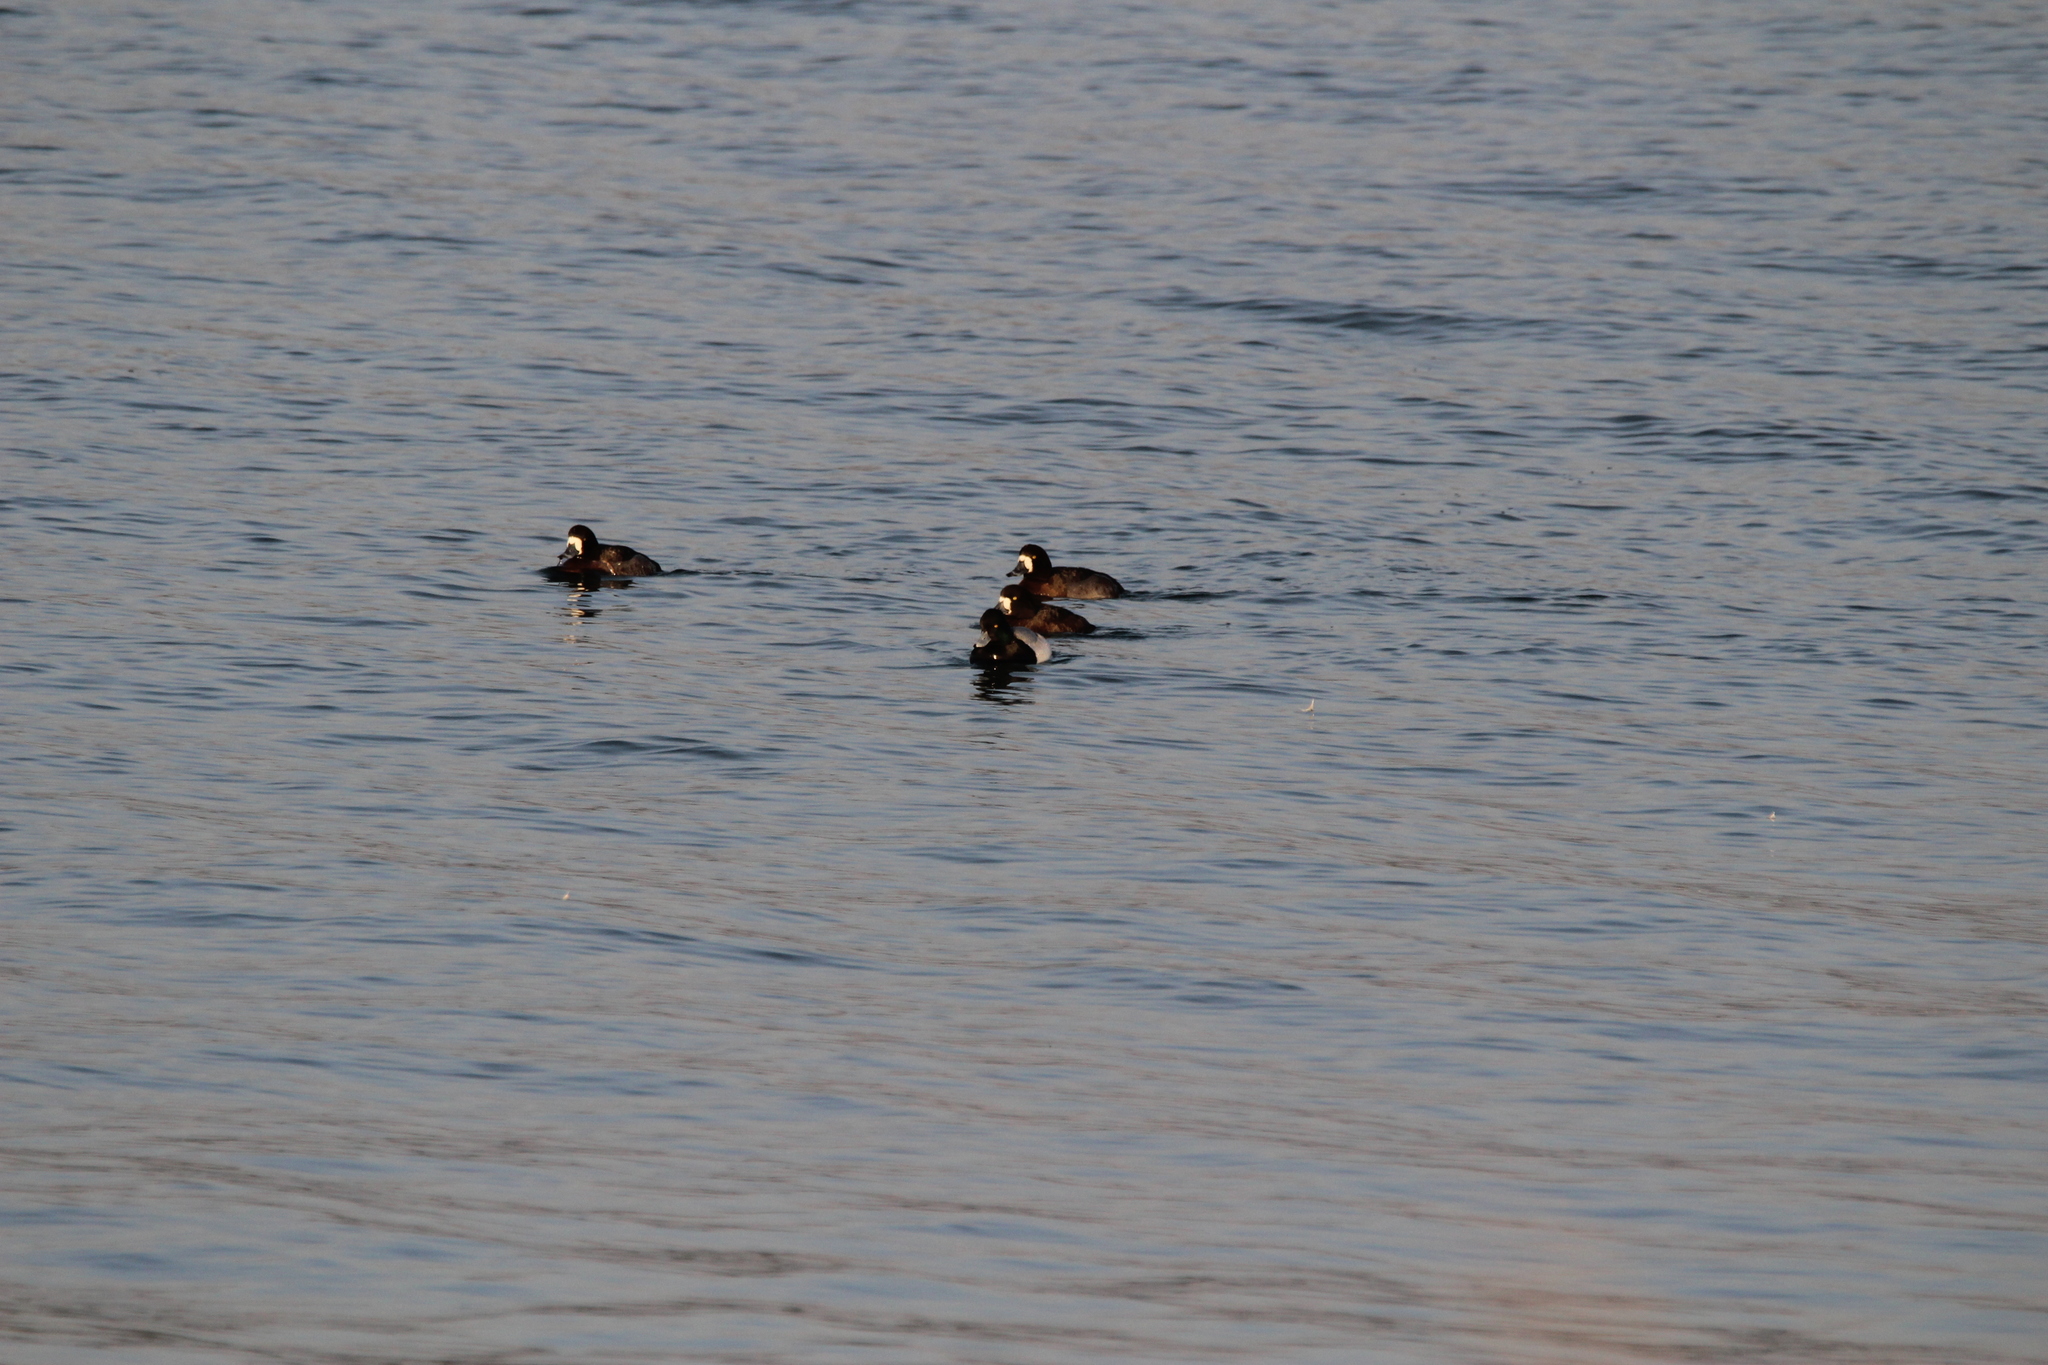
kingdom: Animalia
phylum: Chordata
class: Aves
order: Anseriformes
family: Anatidae
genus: Aythya
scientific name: Aythya marila
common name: Greater scaup
